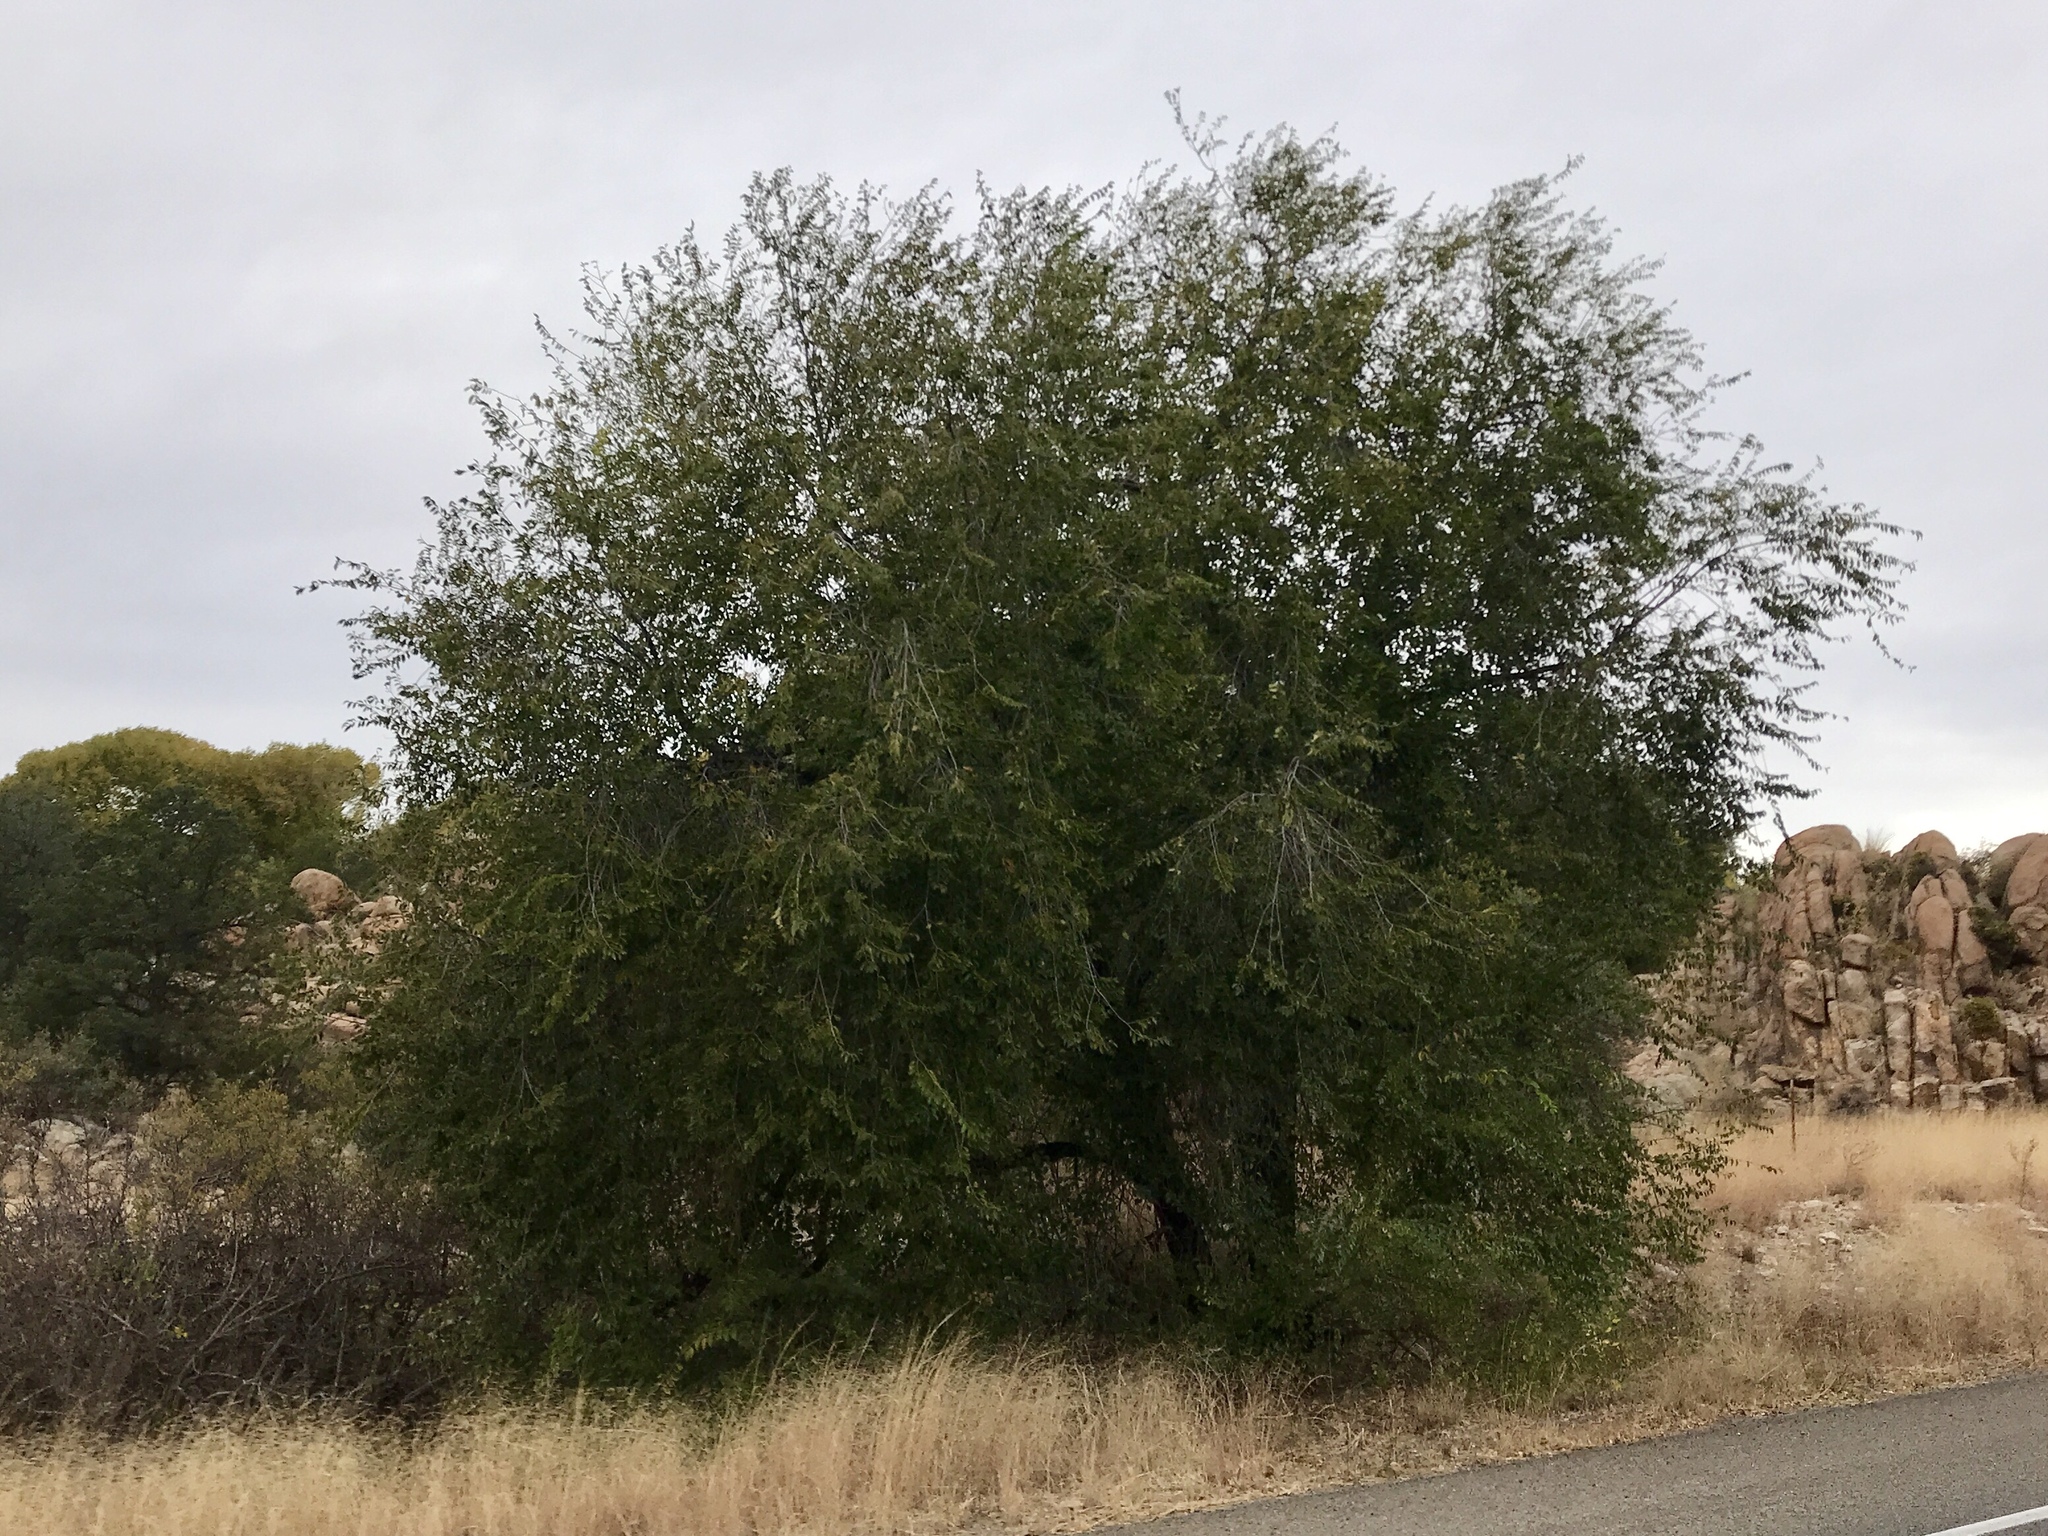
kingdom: Plantae
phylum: Tracheophyta
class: Magnoliopsida
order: Rosales
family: Ulmaceae
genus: Ulmus
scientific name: Ulmus pumila
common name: Siberian elm
